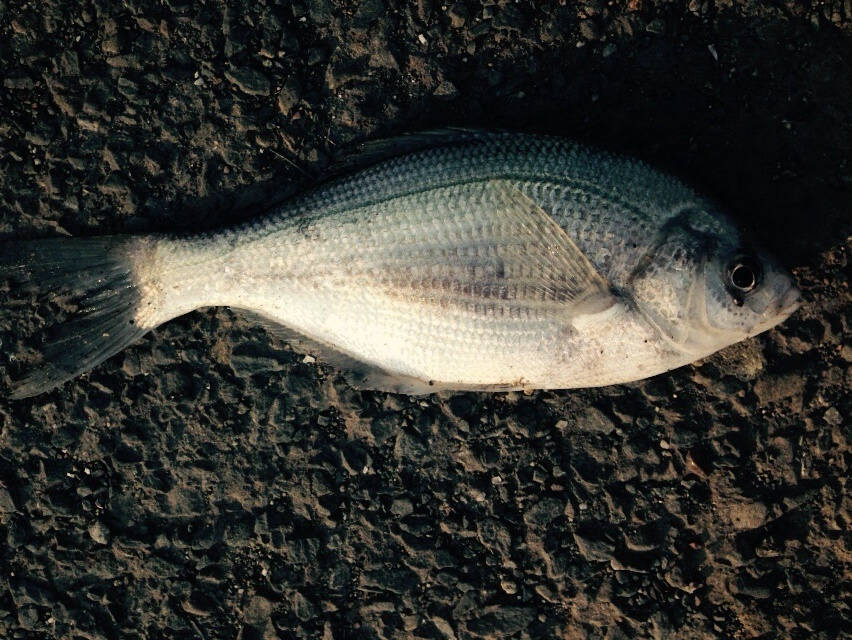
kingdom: Animalia
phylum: Chordata
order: Perciformes
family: Embiotocidae
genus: Phanerodon
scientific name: Phanerodon furcatus
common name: White seaperch
